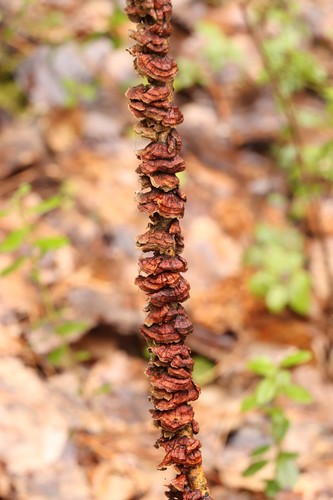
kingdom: Fungi
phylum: Basidiomycota
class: Agaricomycetes
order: Hymenochaetales
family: Hymenochaetaceae
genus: Hydnoporia
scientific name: Hydnoporia tabacina
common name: Willow glue
